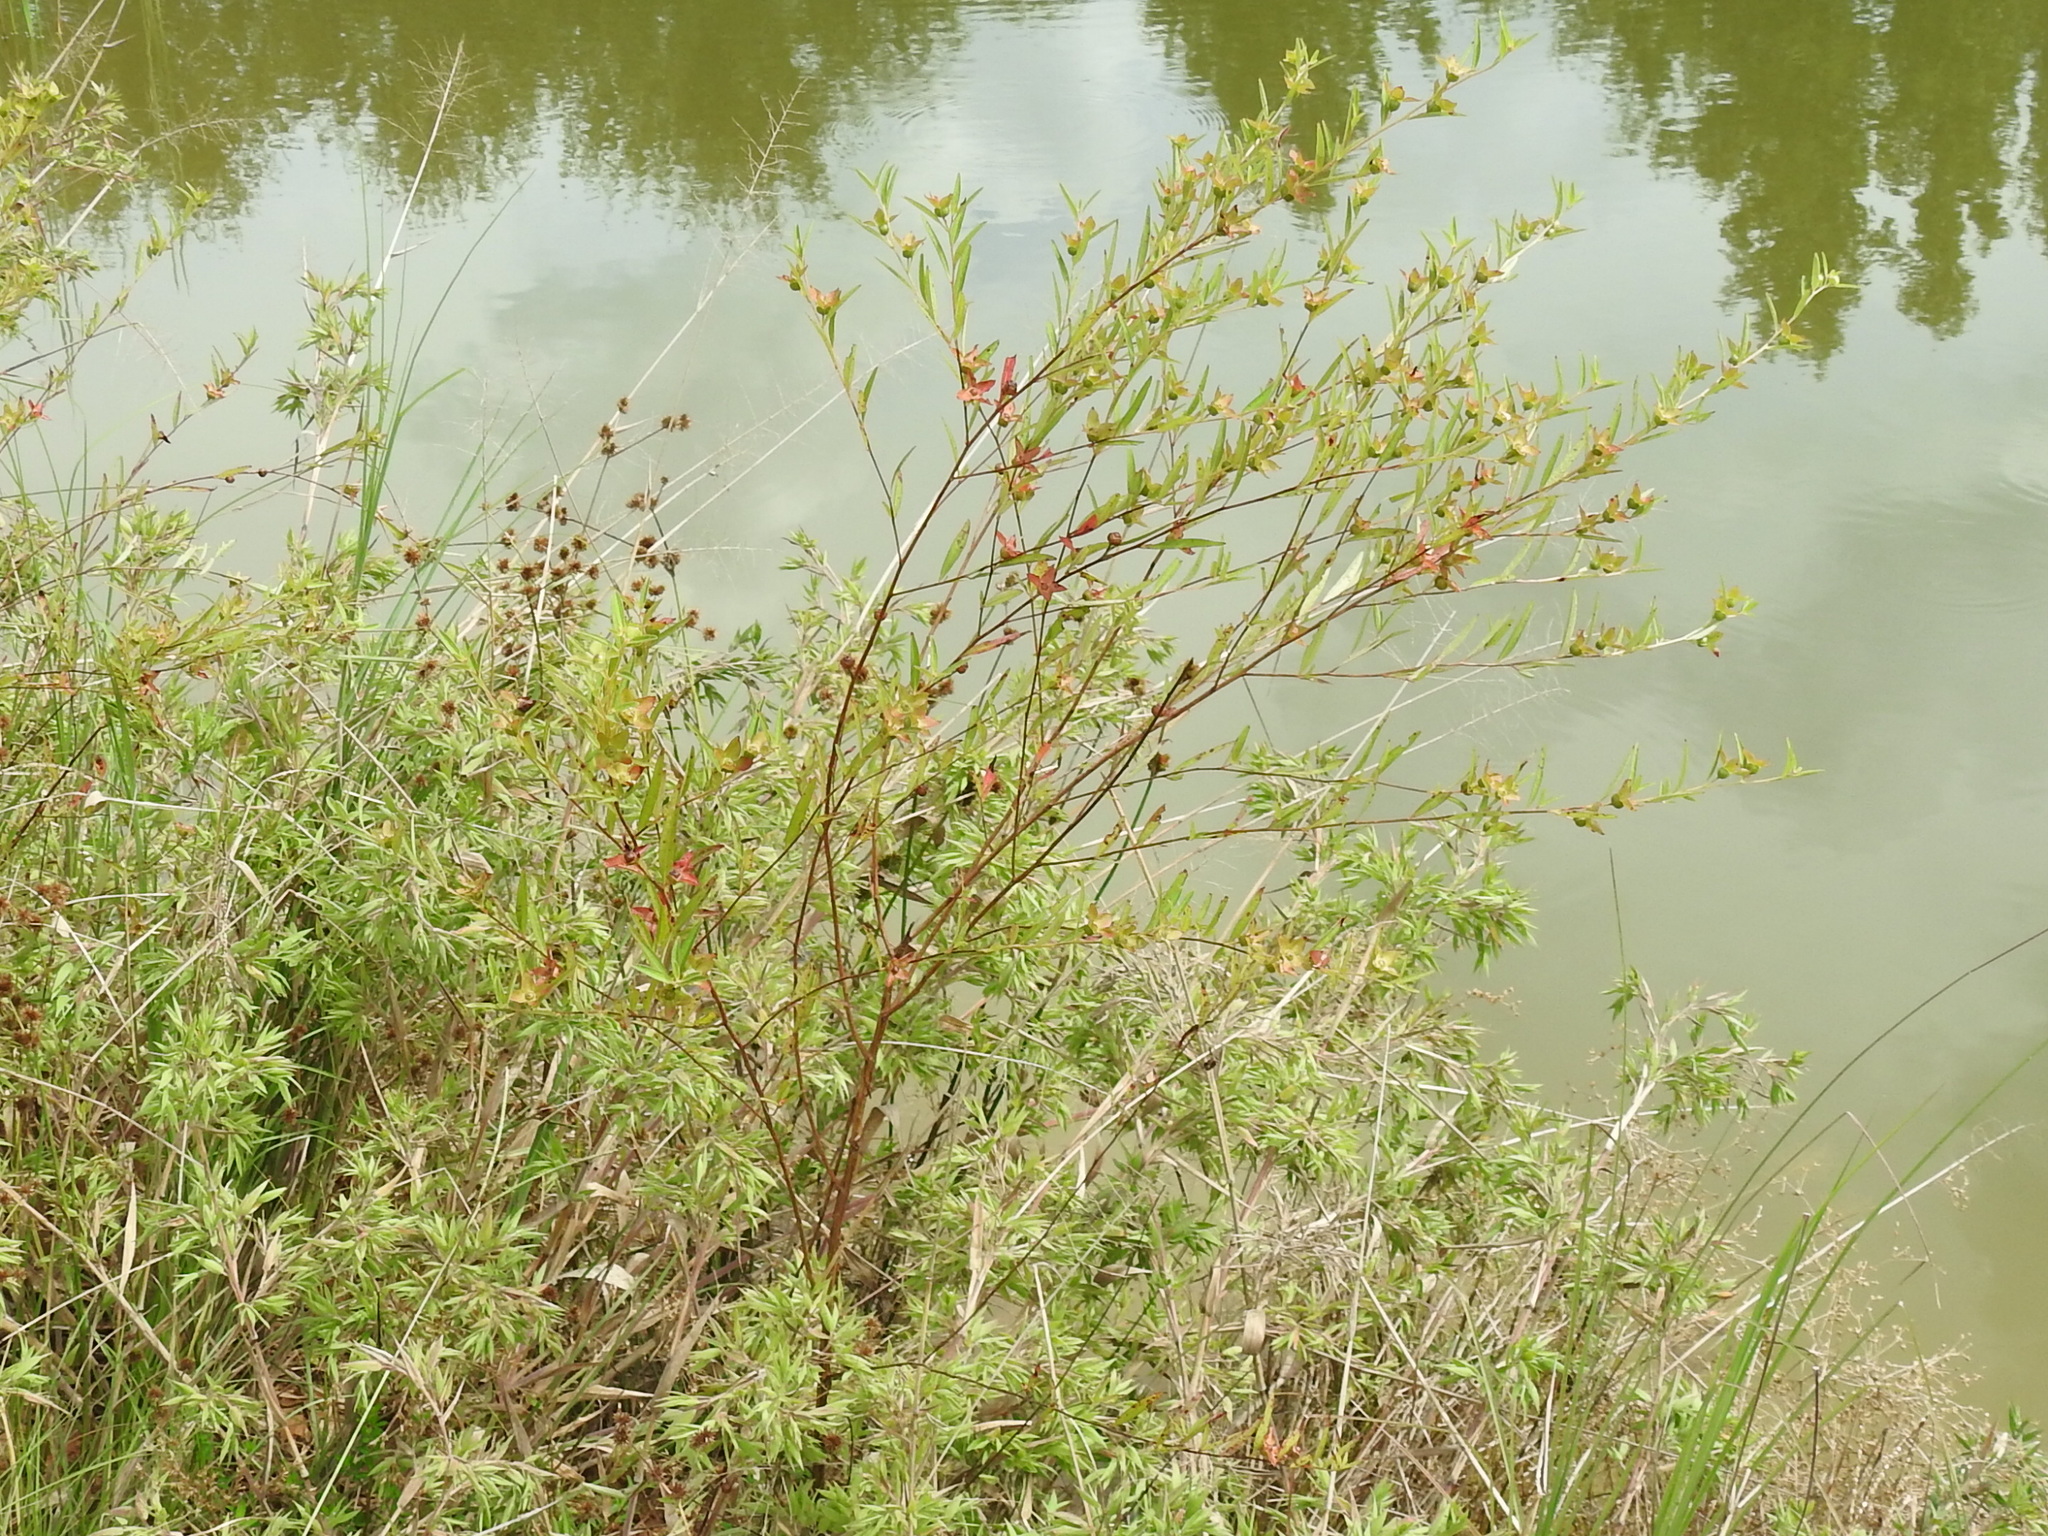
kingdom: Plantae
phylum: Tracheophyta
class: Magnoliopsida
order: Myrtales
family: Onagraceae
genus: Ludwigia
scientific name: Ludwigia alternifolia
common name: Rattlebox
